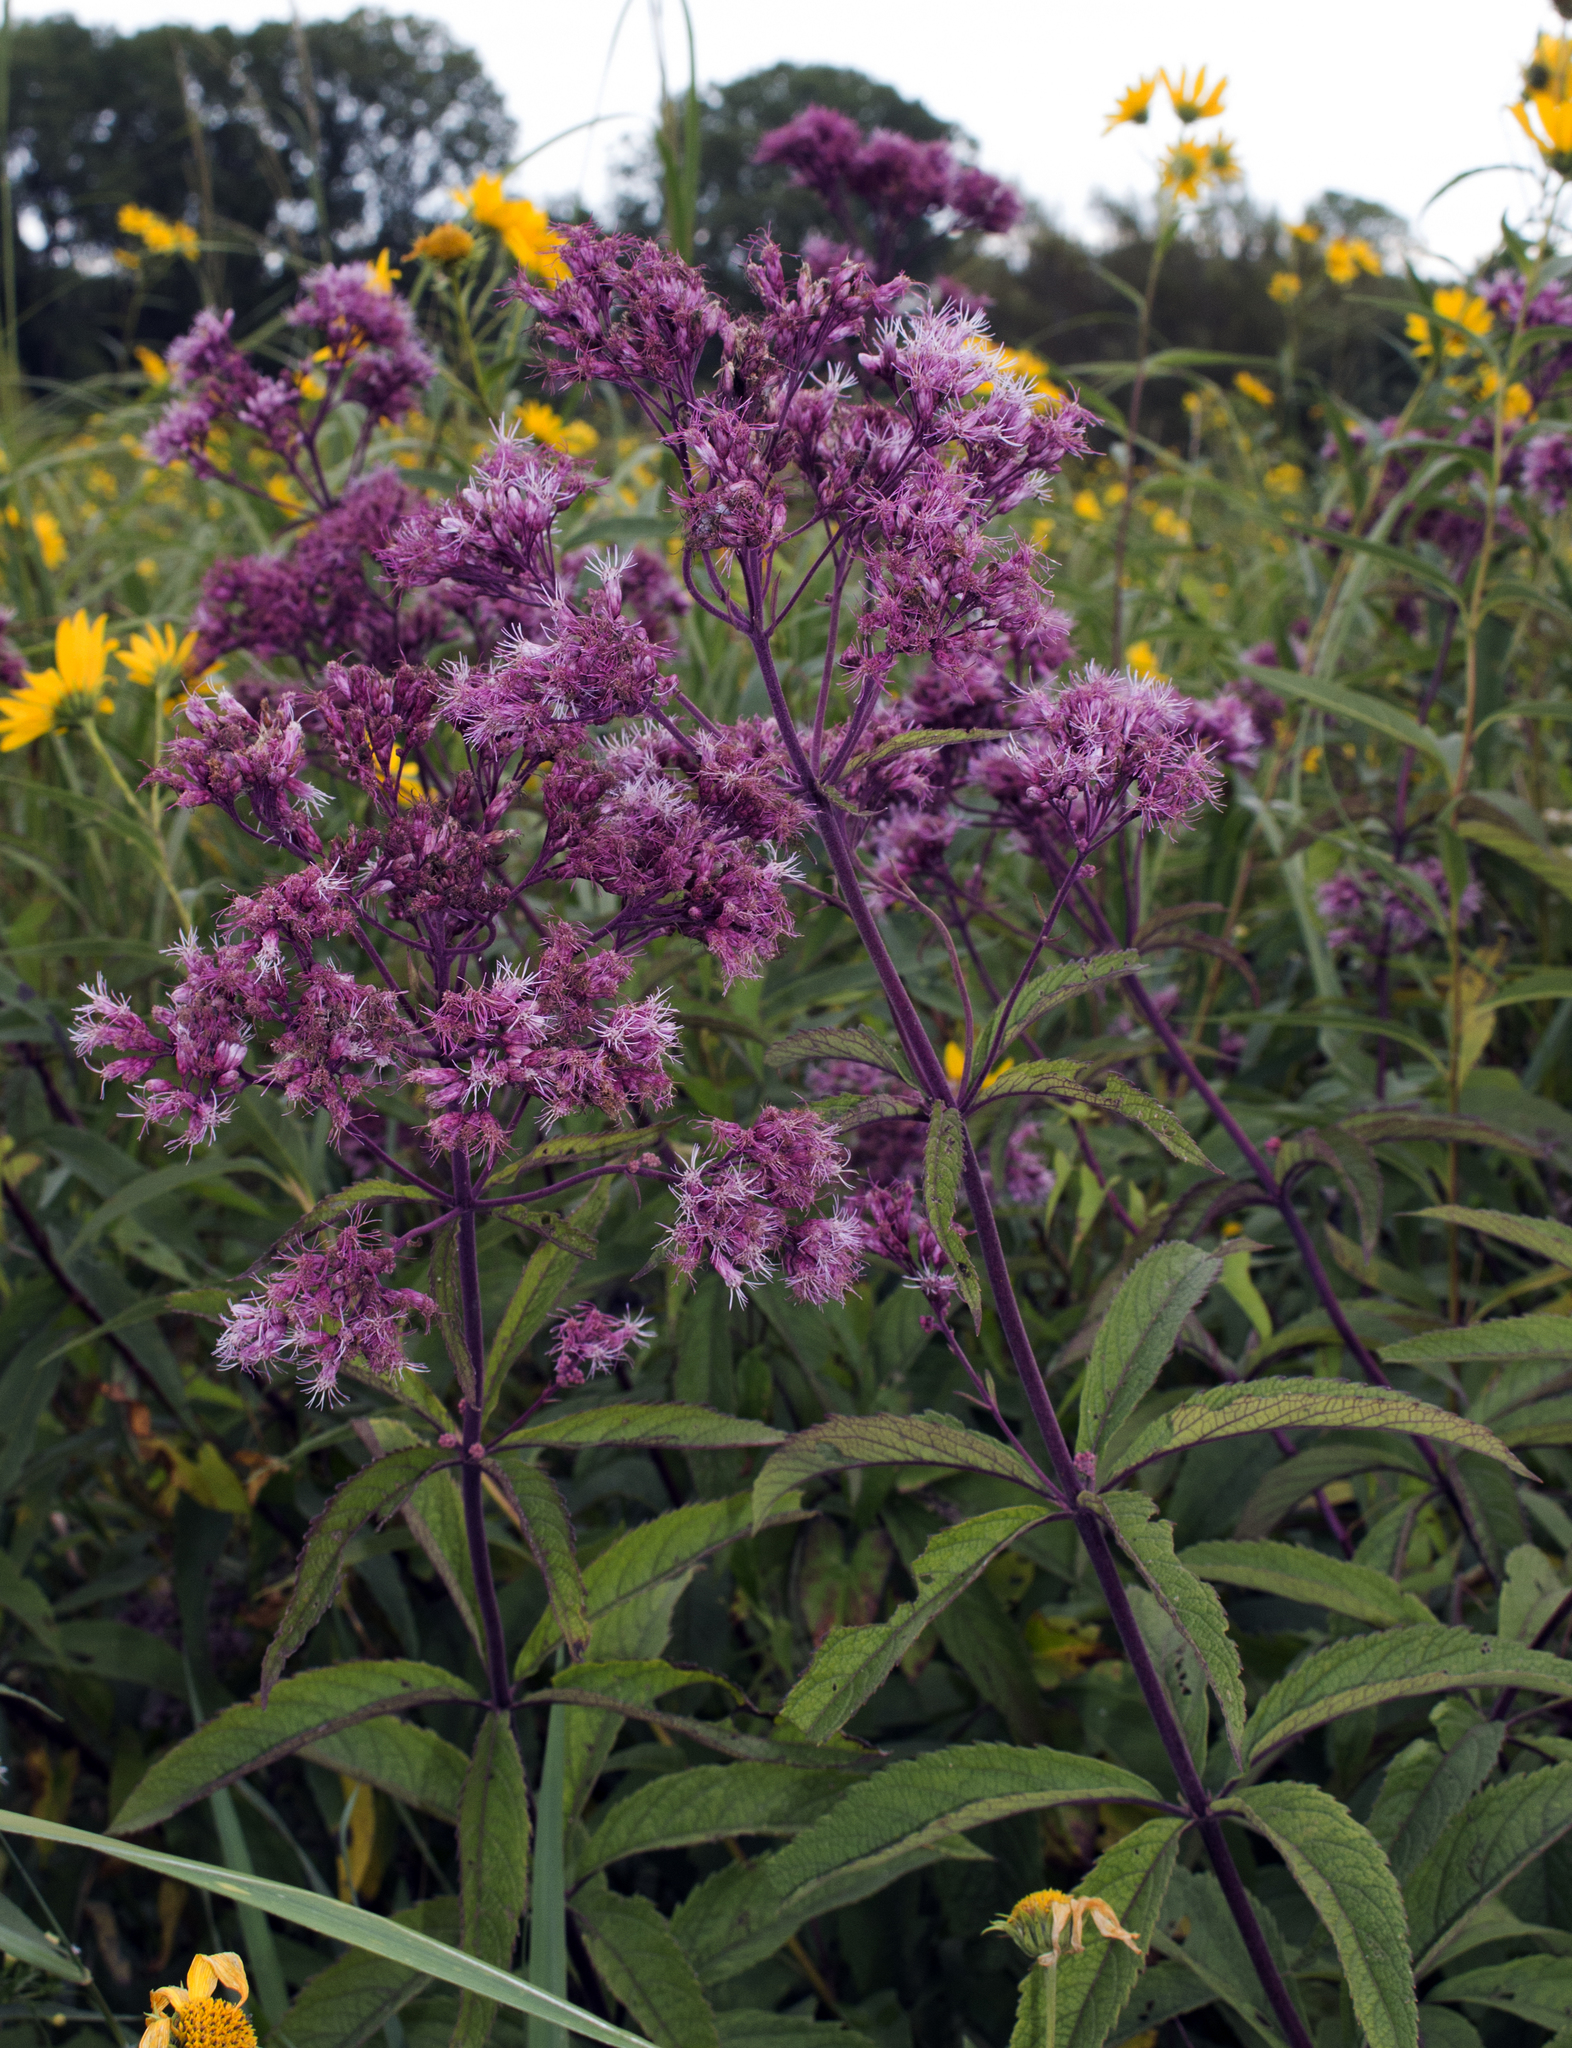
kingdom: Plantae
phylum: Tracheophyta
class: Magnoliopsida
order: Asterales
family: Asteraceae
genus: Eutrochium
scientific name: Eutrochium maculatum
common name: Spotted joe pye weed
